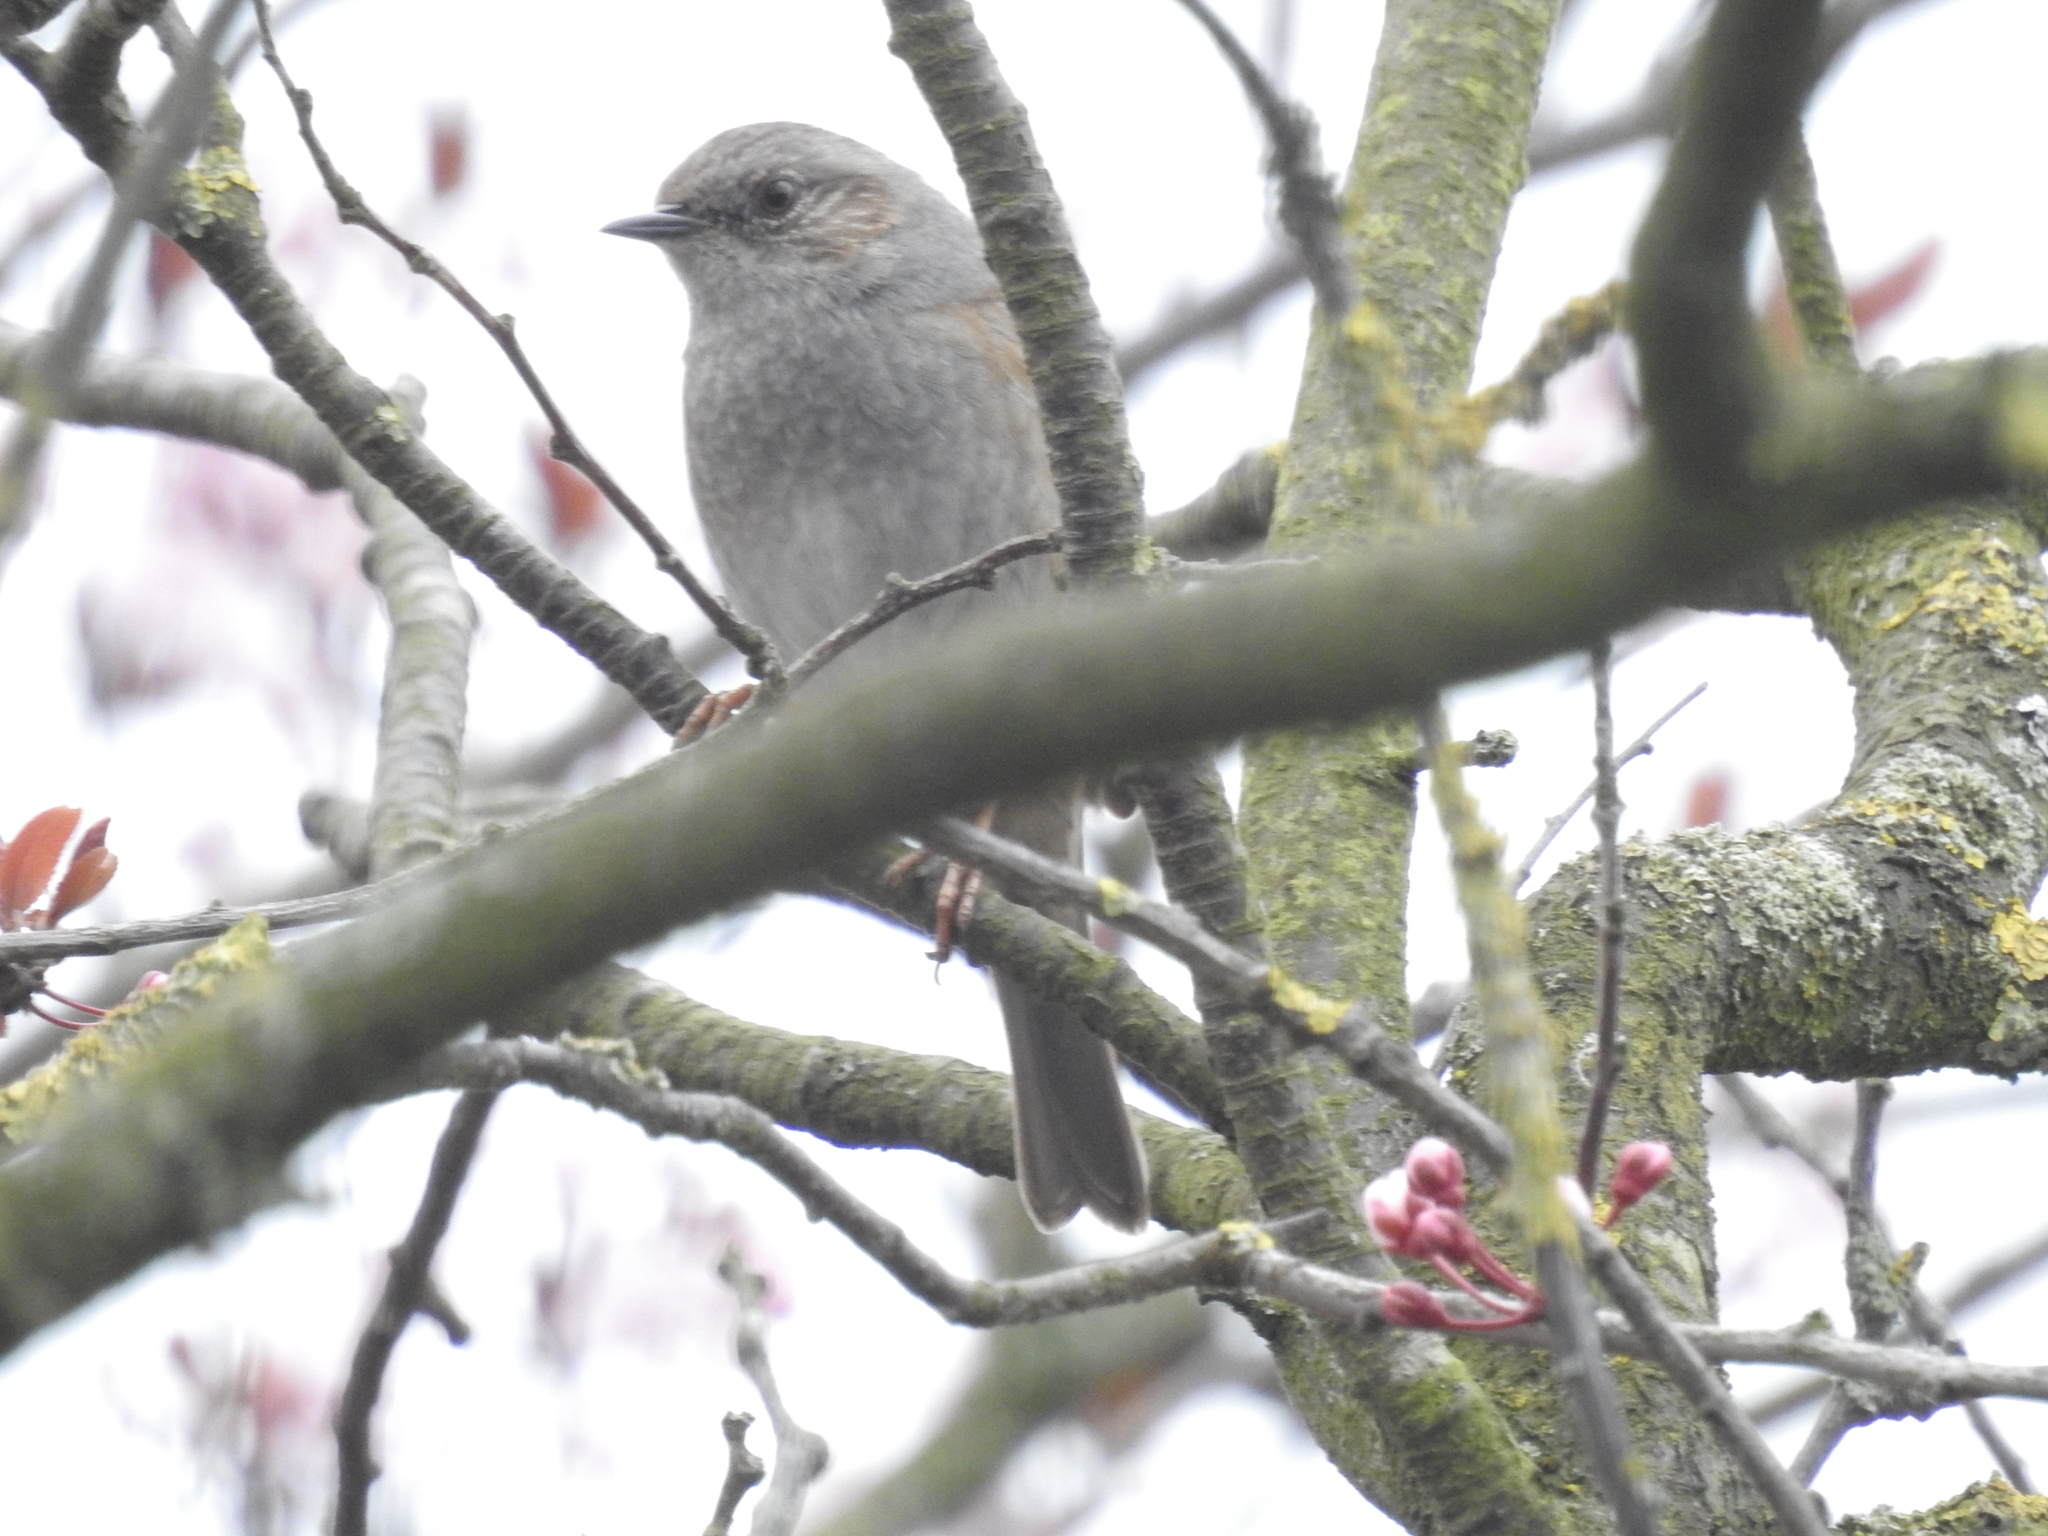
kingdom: Animalia
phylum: Chordata
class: Aves
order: Passeriformes
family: Prunellidae
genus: Prunella
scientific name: Prunella modularis
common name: Dunnock
